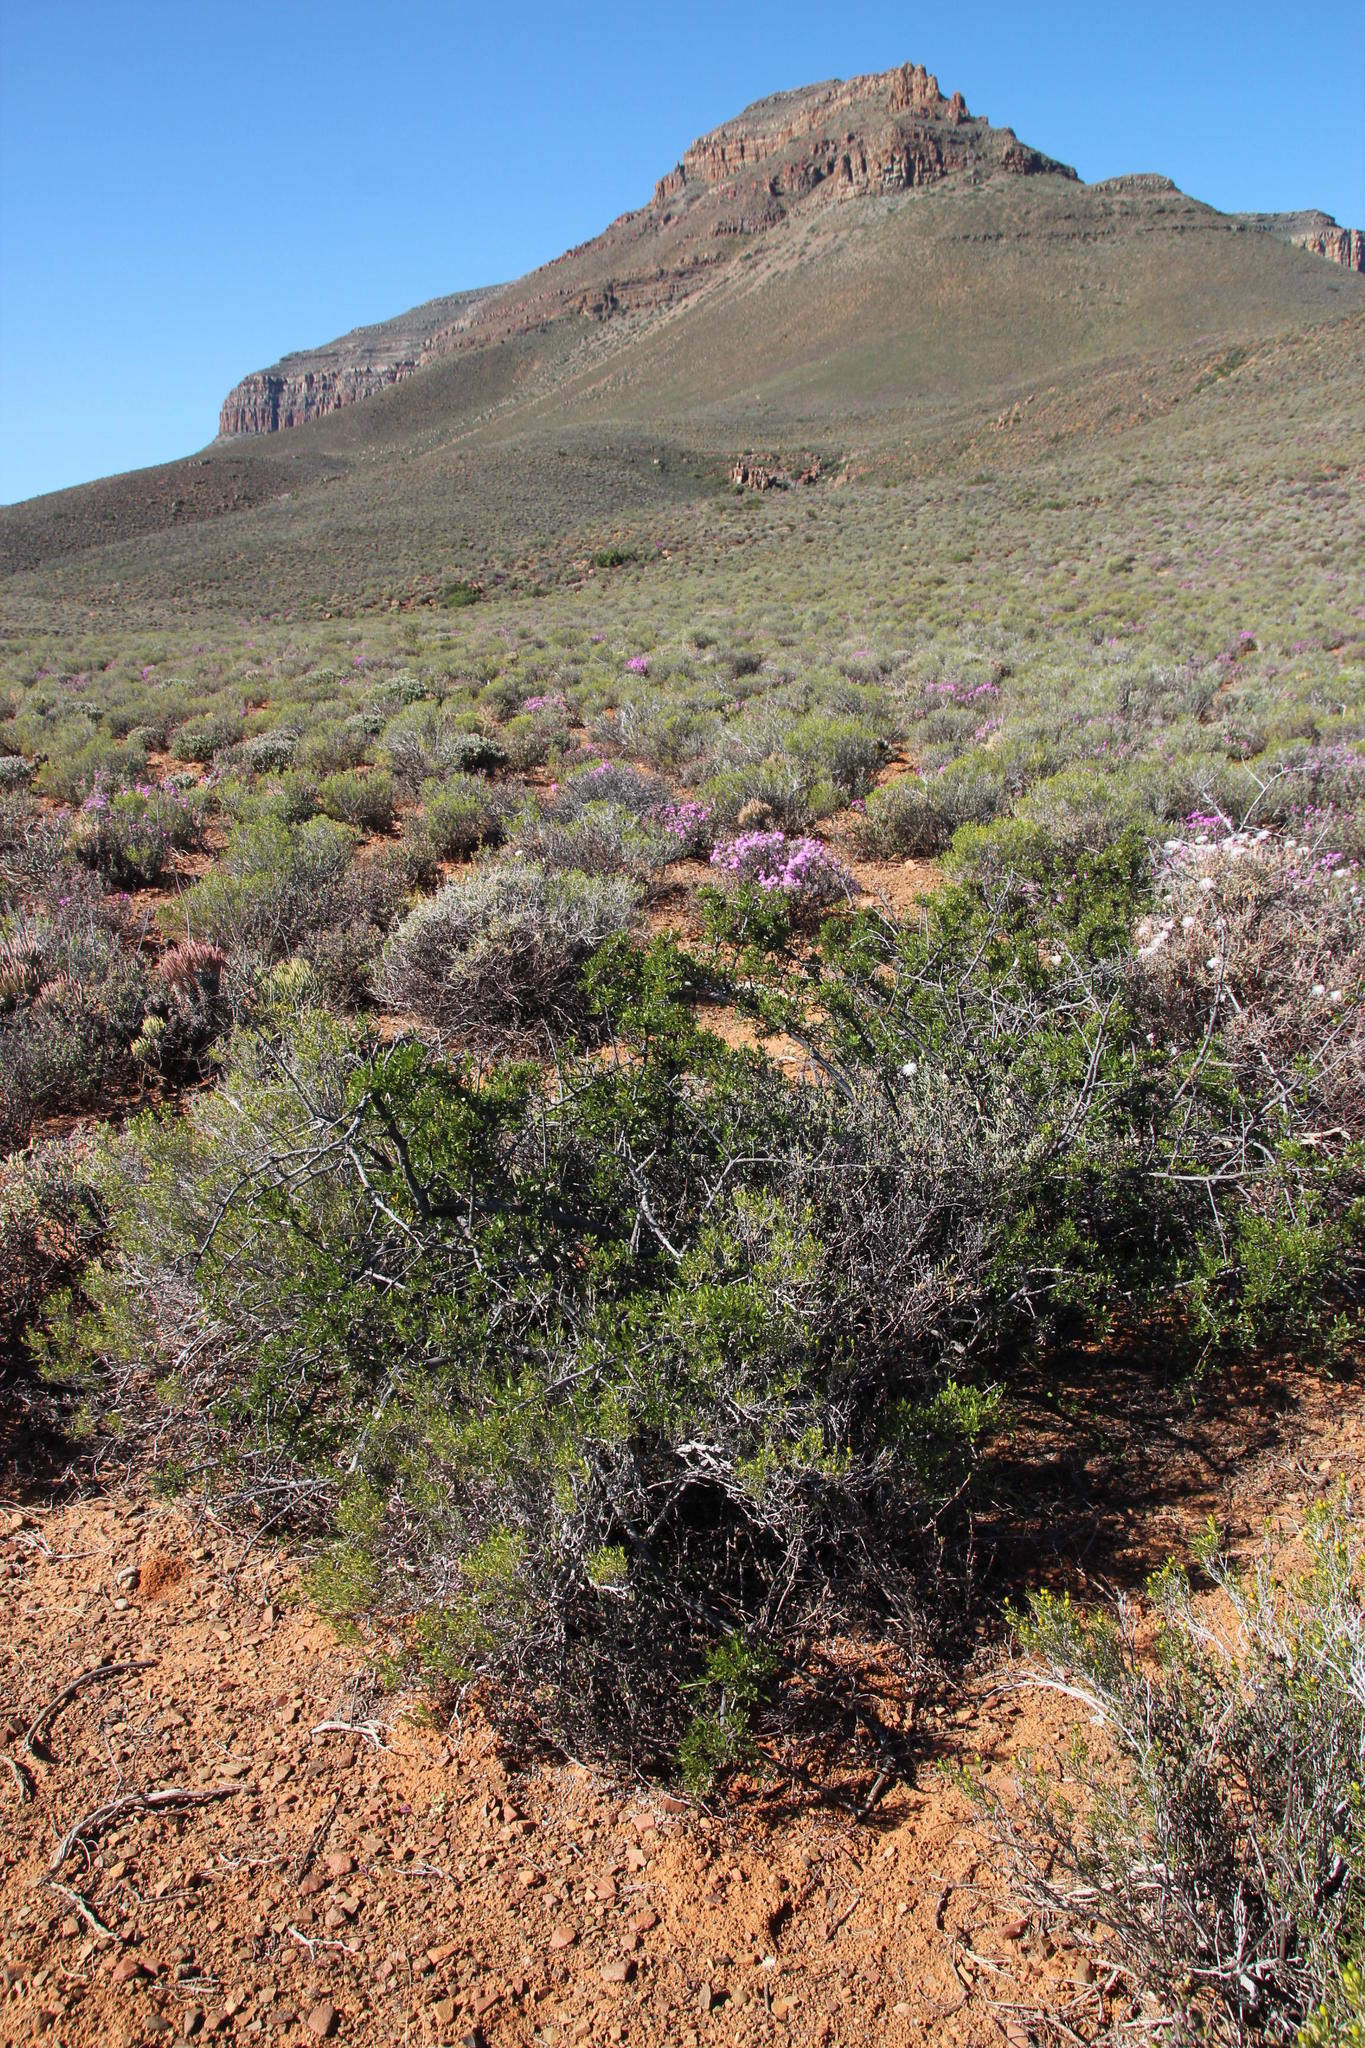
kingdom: Plantae
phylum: Tracheophyta
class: Magnoliopsida
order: Sapindales
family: Anacardiaceae
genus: Searsia
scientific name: Searsia burchellii
